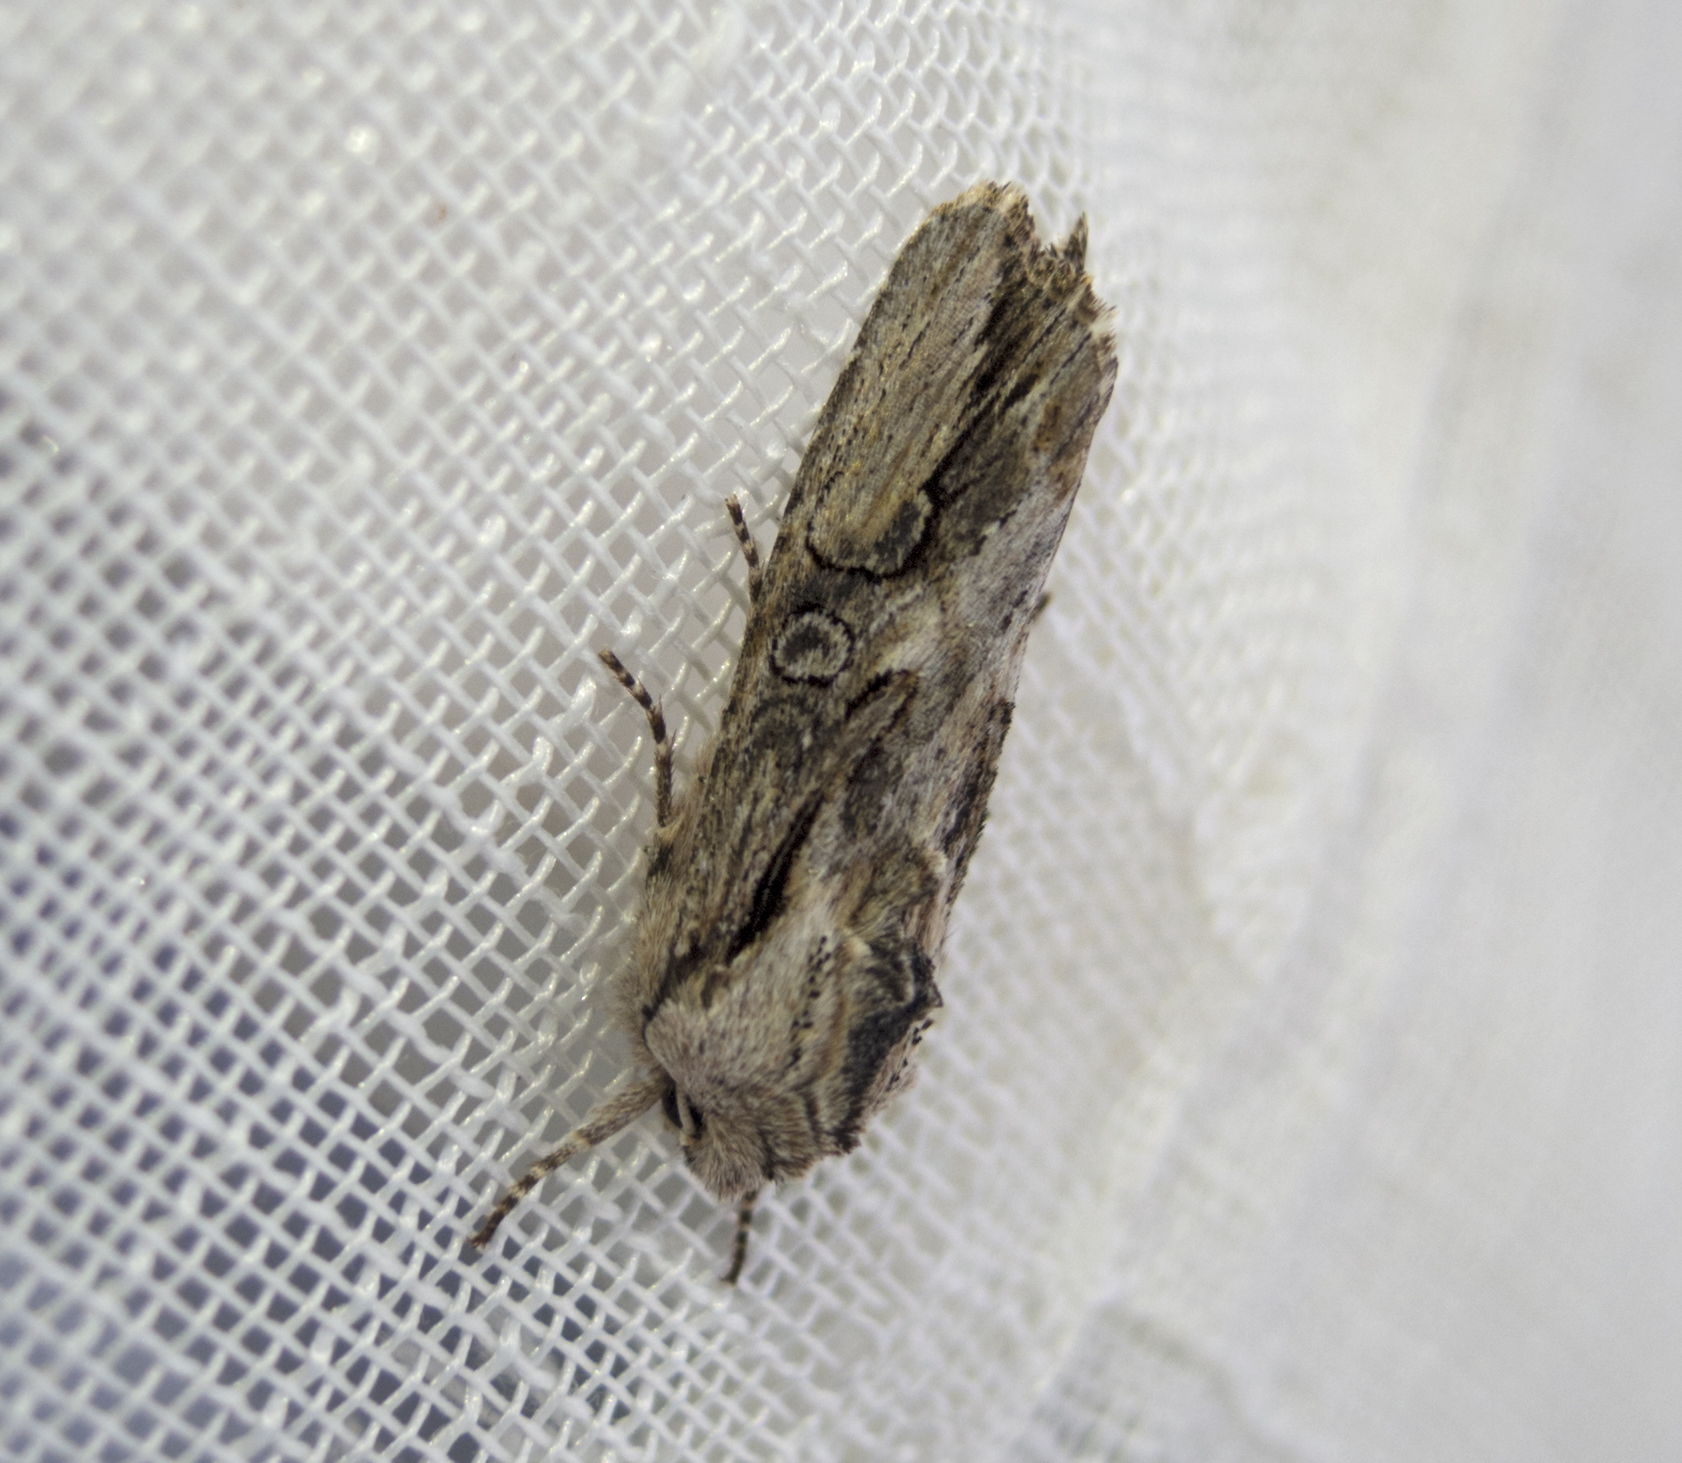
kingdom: Animalia
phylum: Arthropoda
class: Insecta
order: Lepidoptera
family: Noctuidae
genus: Egira
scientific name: Egira
